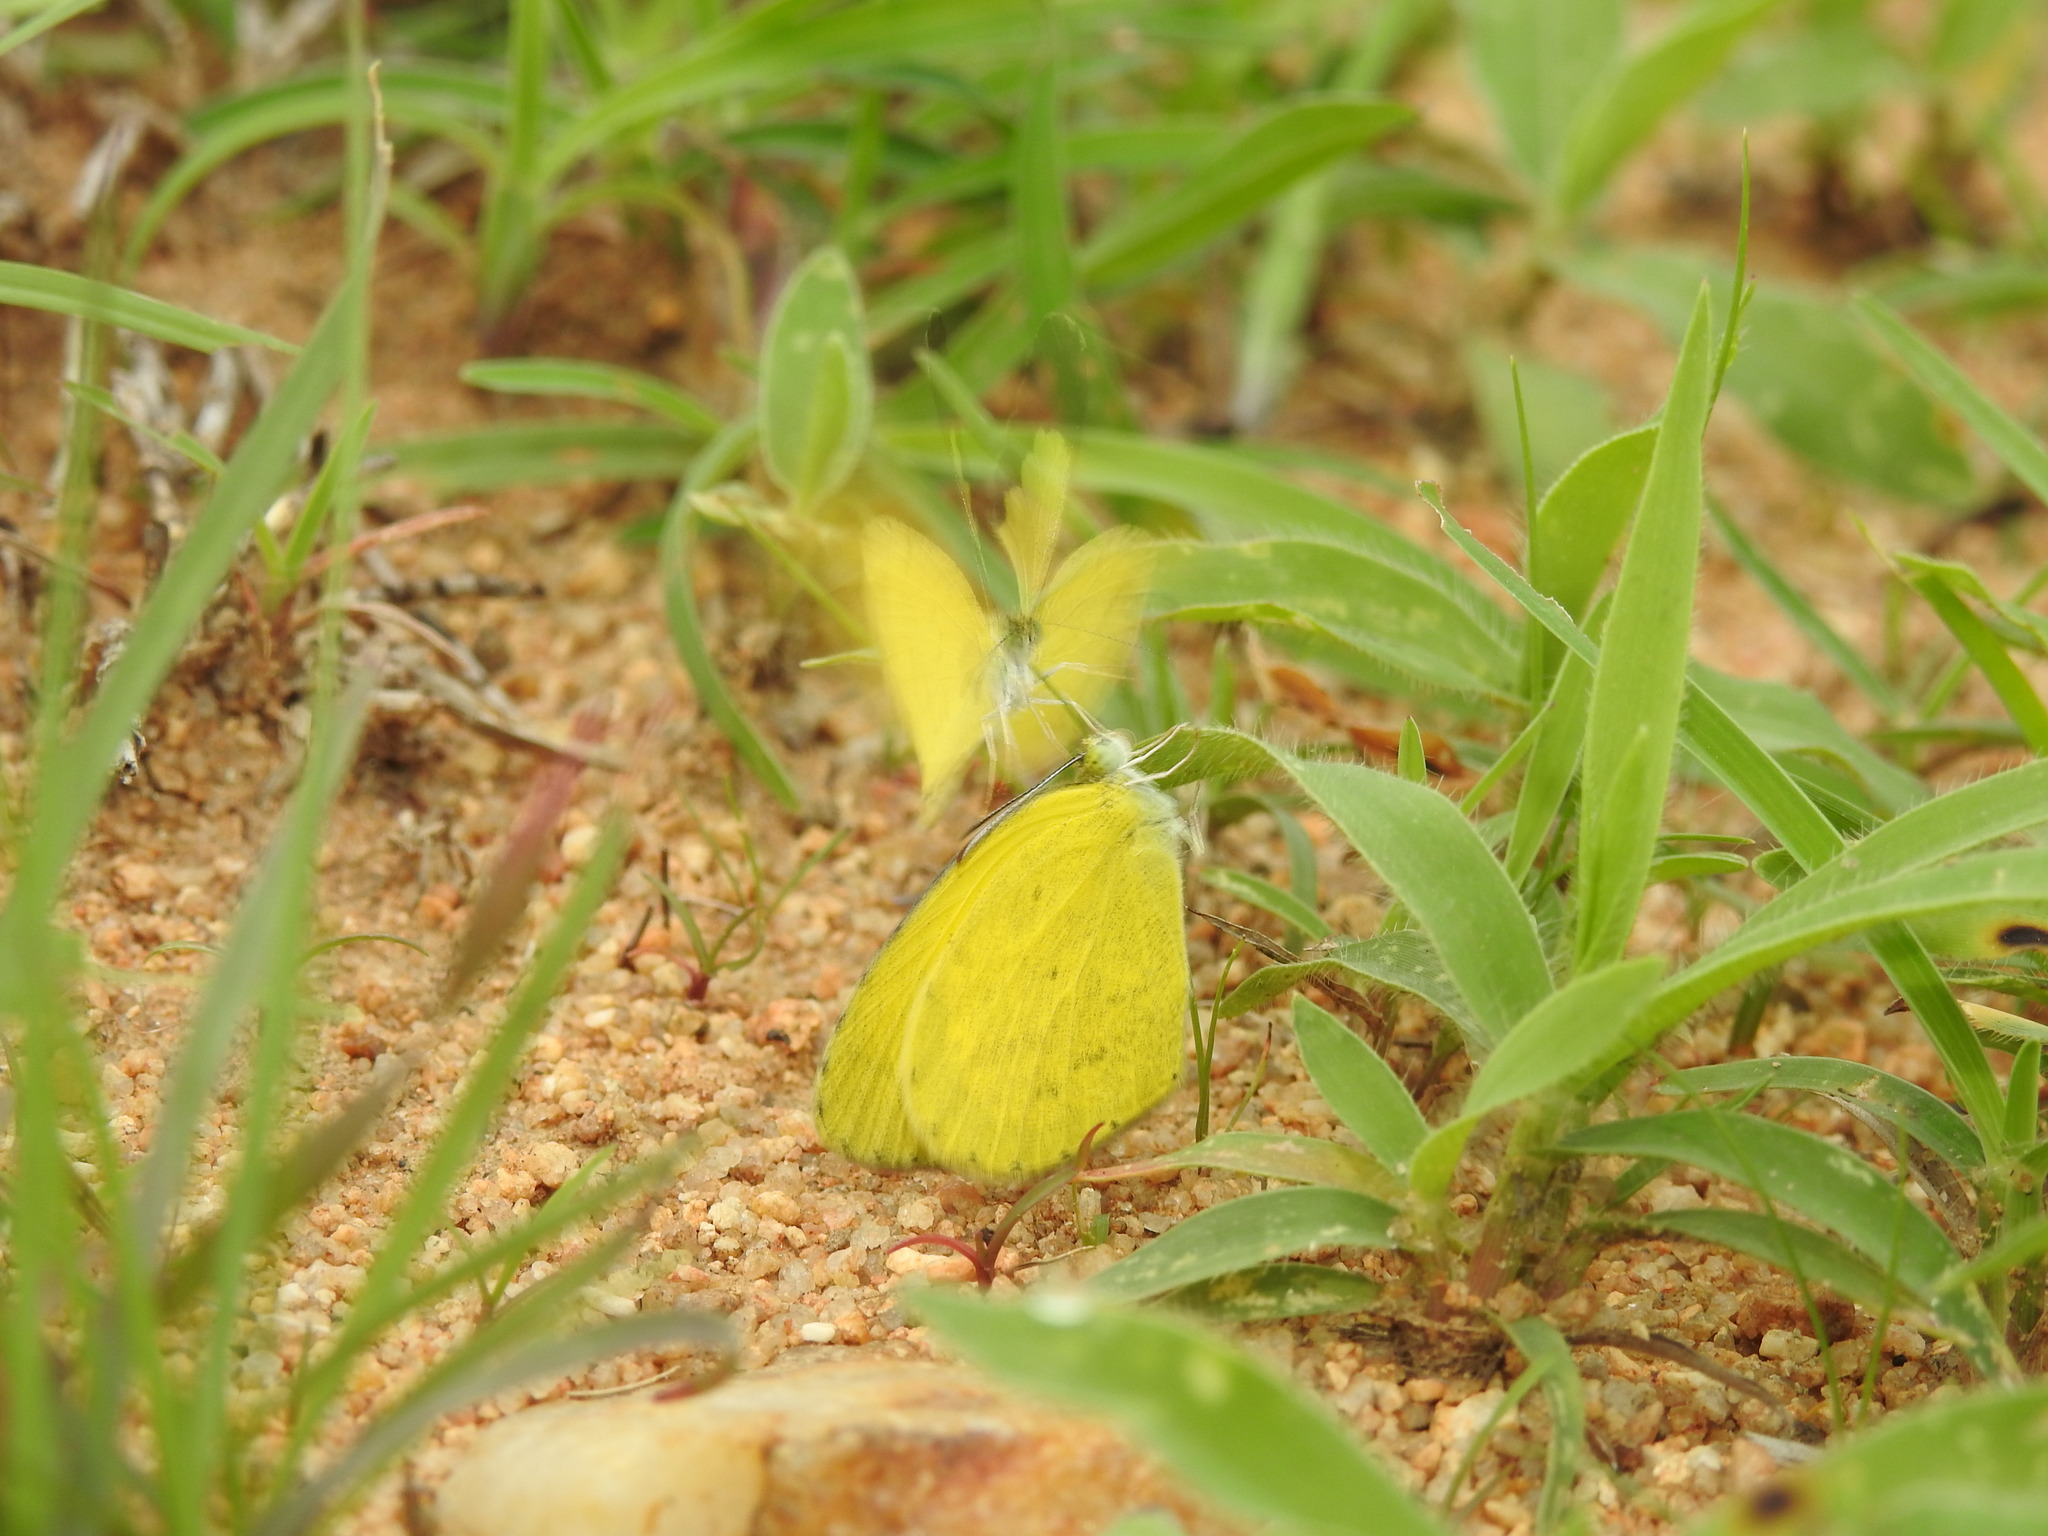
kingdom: Animalia
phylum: Arthropoda
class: Insecta
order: Lepidoptera
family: Pieridae
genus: Eurema
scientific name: Eurema brigitta
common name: Small grass yellow
